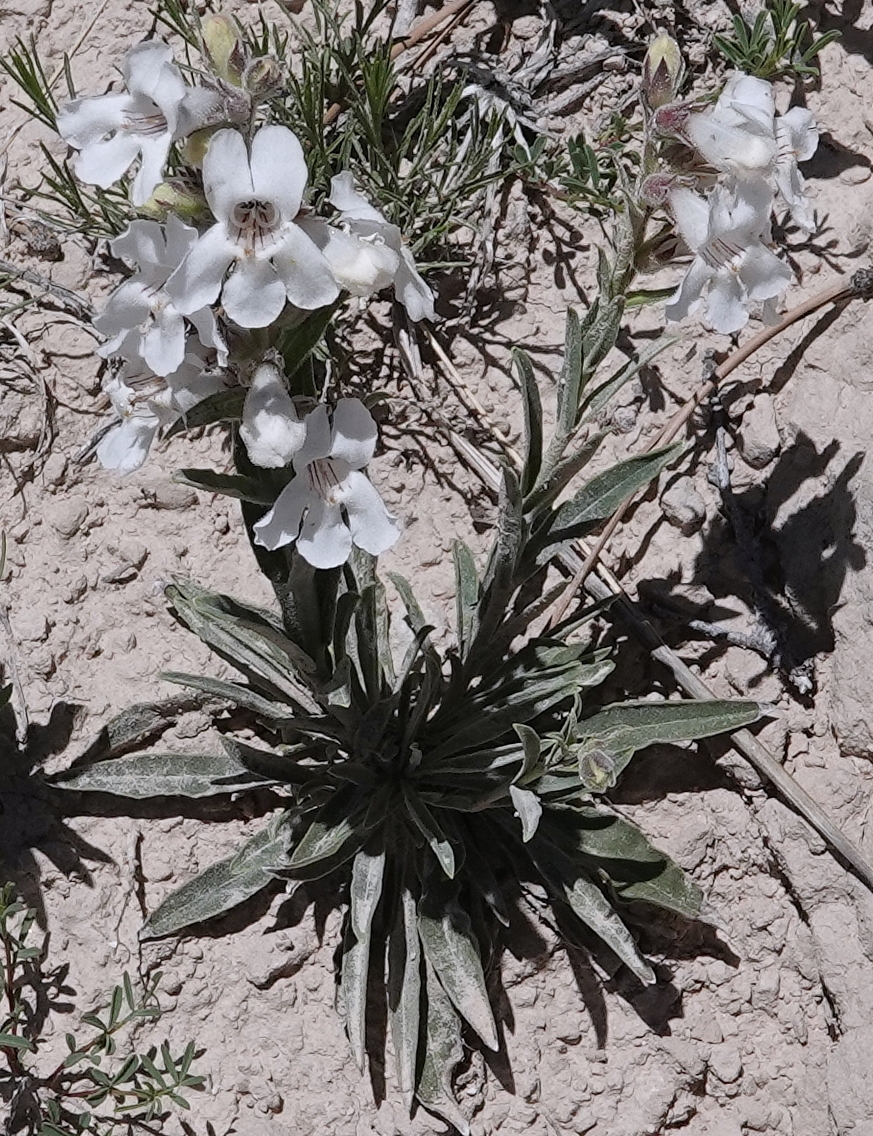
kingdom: Plantae
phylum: Tracheophyta
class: Magnoliopsida
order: Lamiales
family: Plantaginaceae
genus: Penstemon
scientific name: Penstemon albidus
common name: White beardtongue
